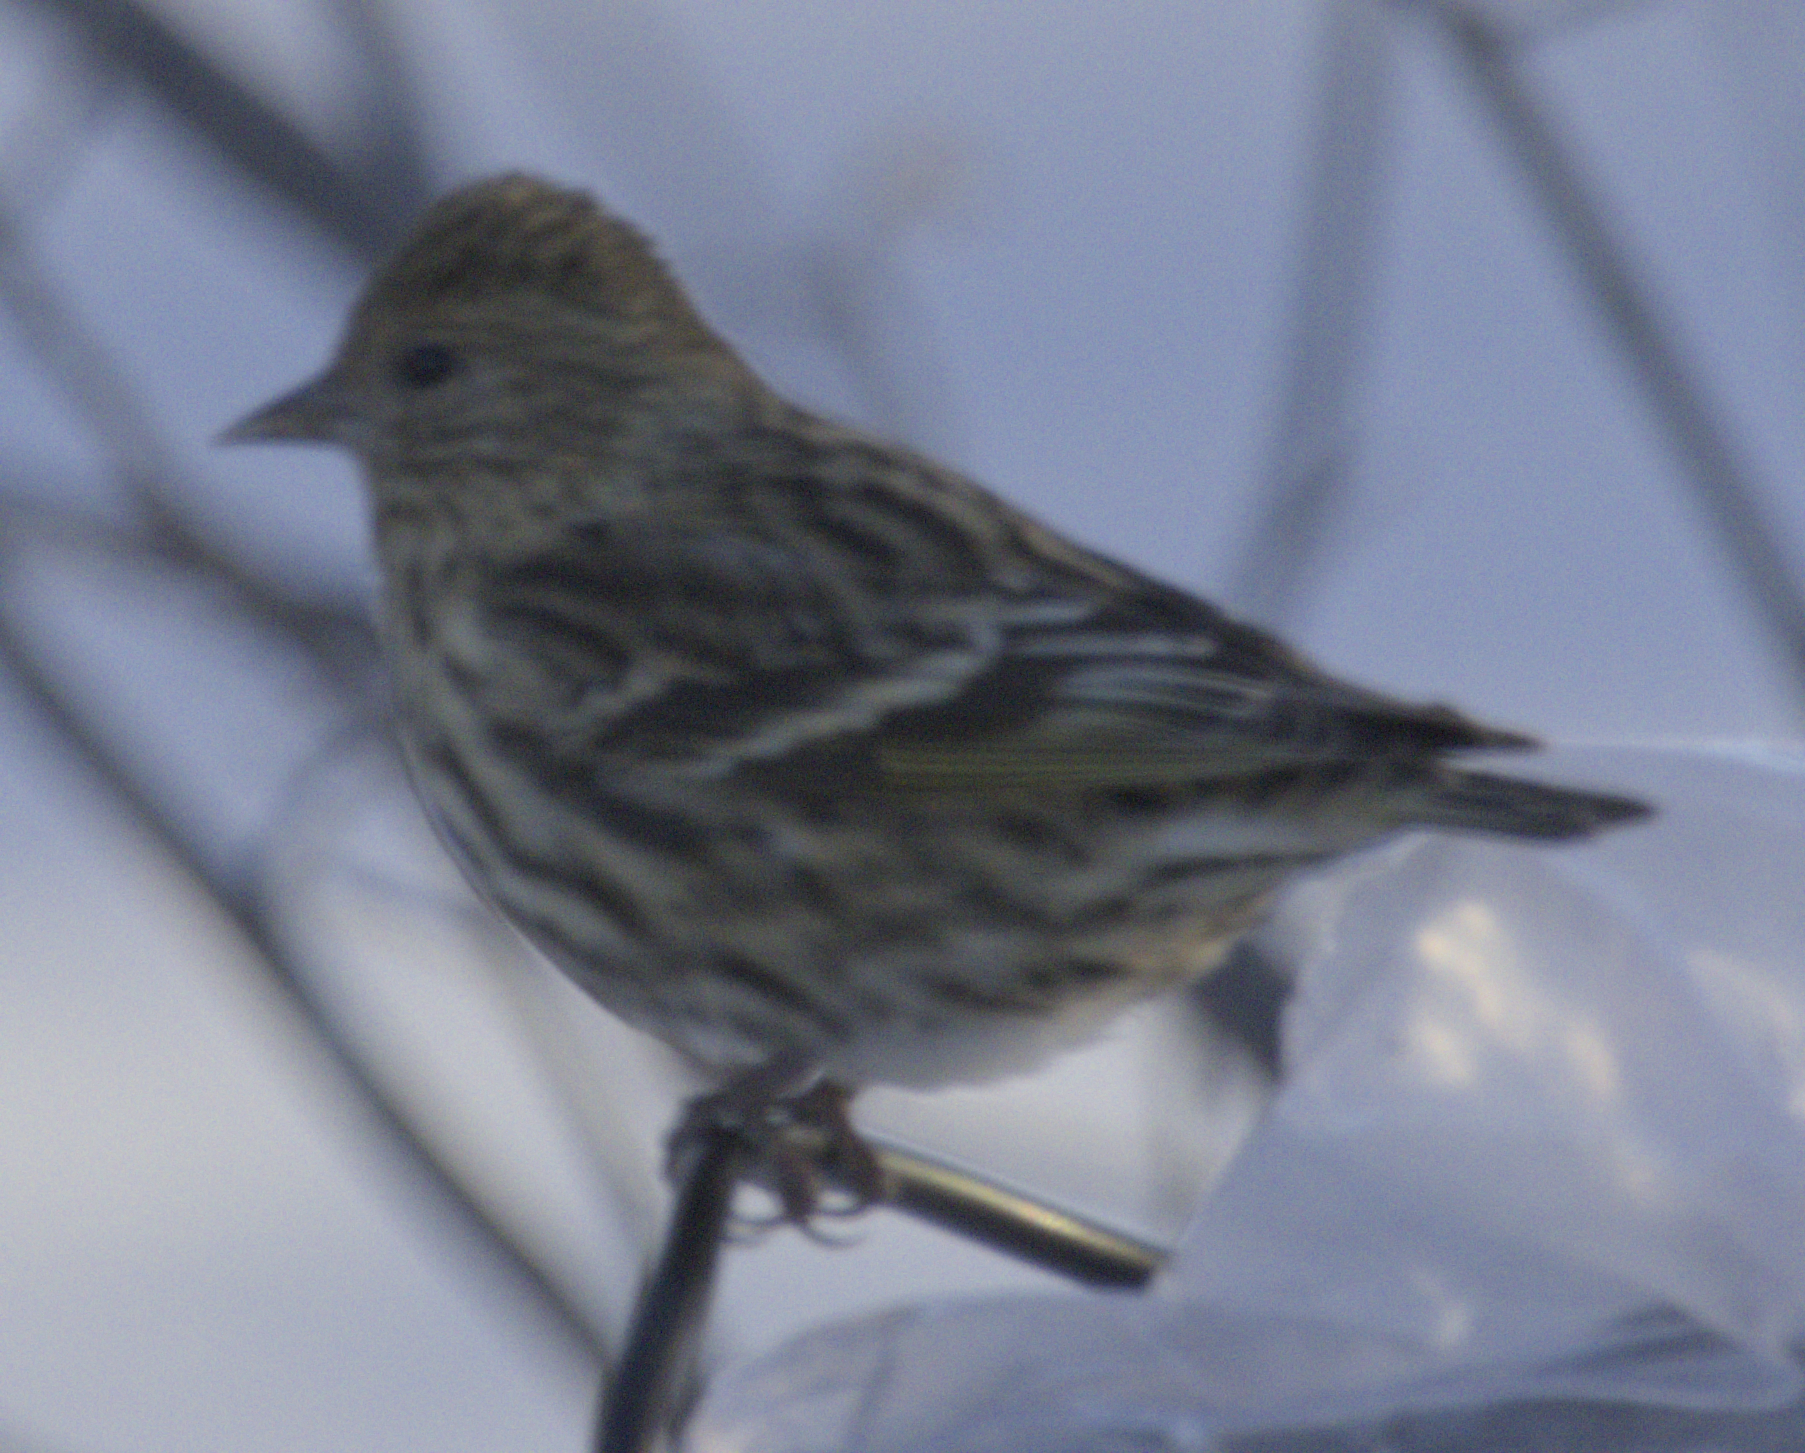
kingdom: Animalia
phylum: Chordata
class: Aves
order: Passeriformes
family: Fringillidae
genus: Spinus
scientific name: Spinus pinus
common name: Pine siskin
